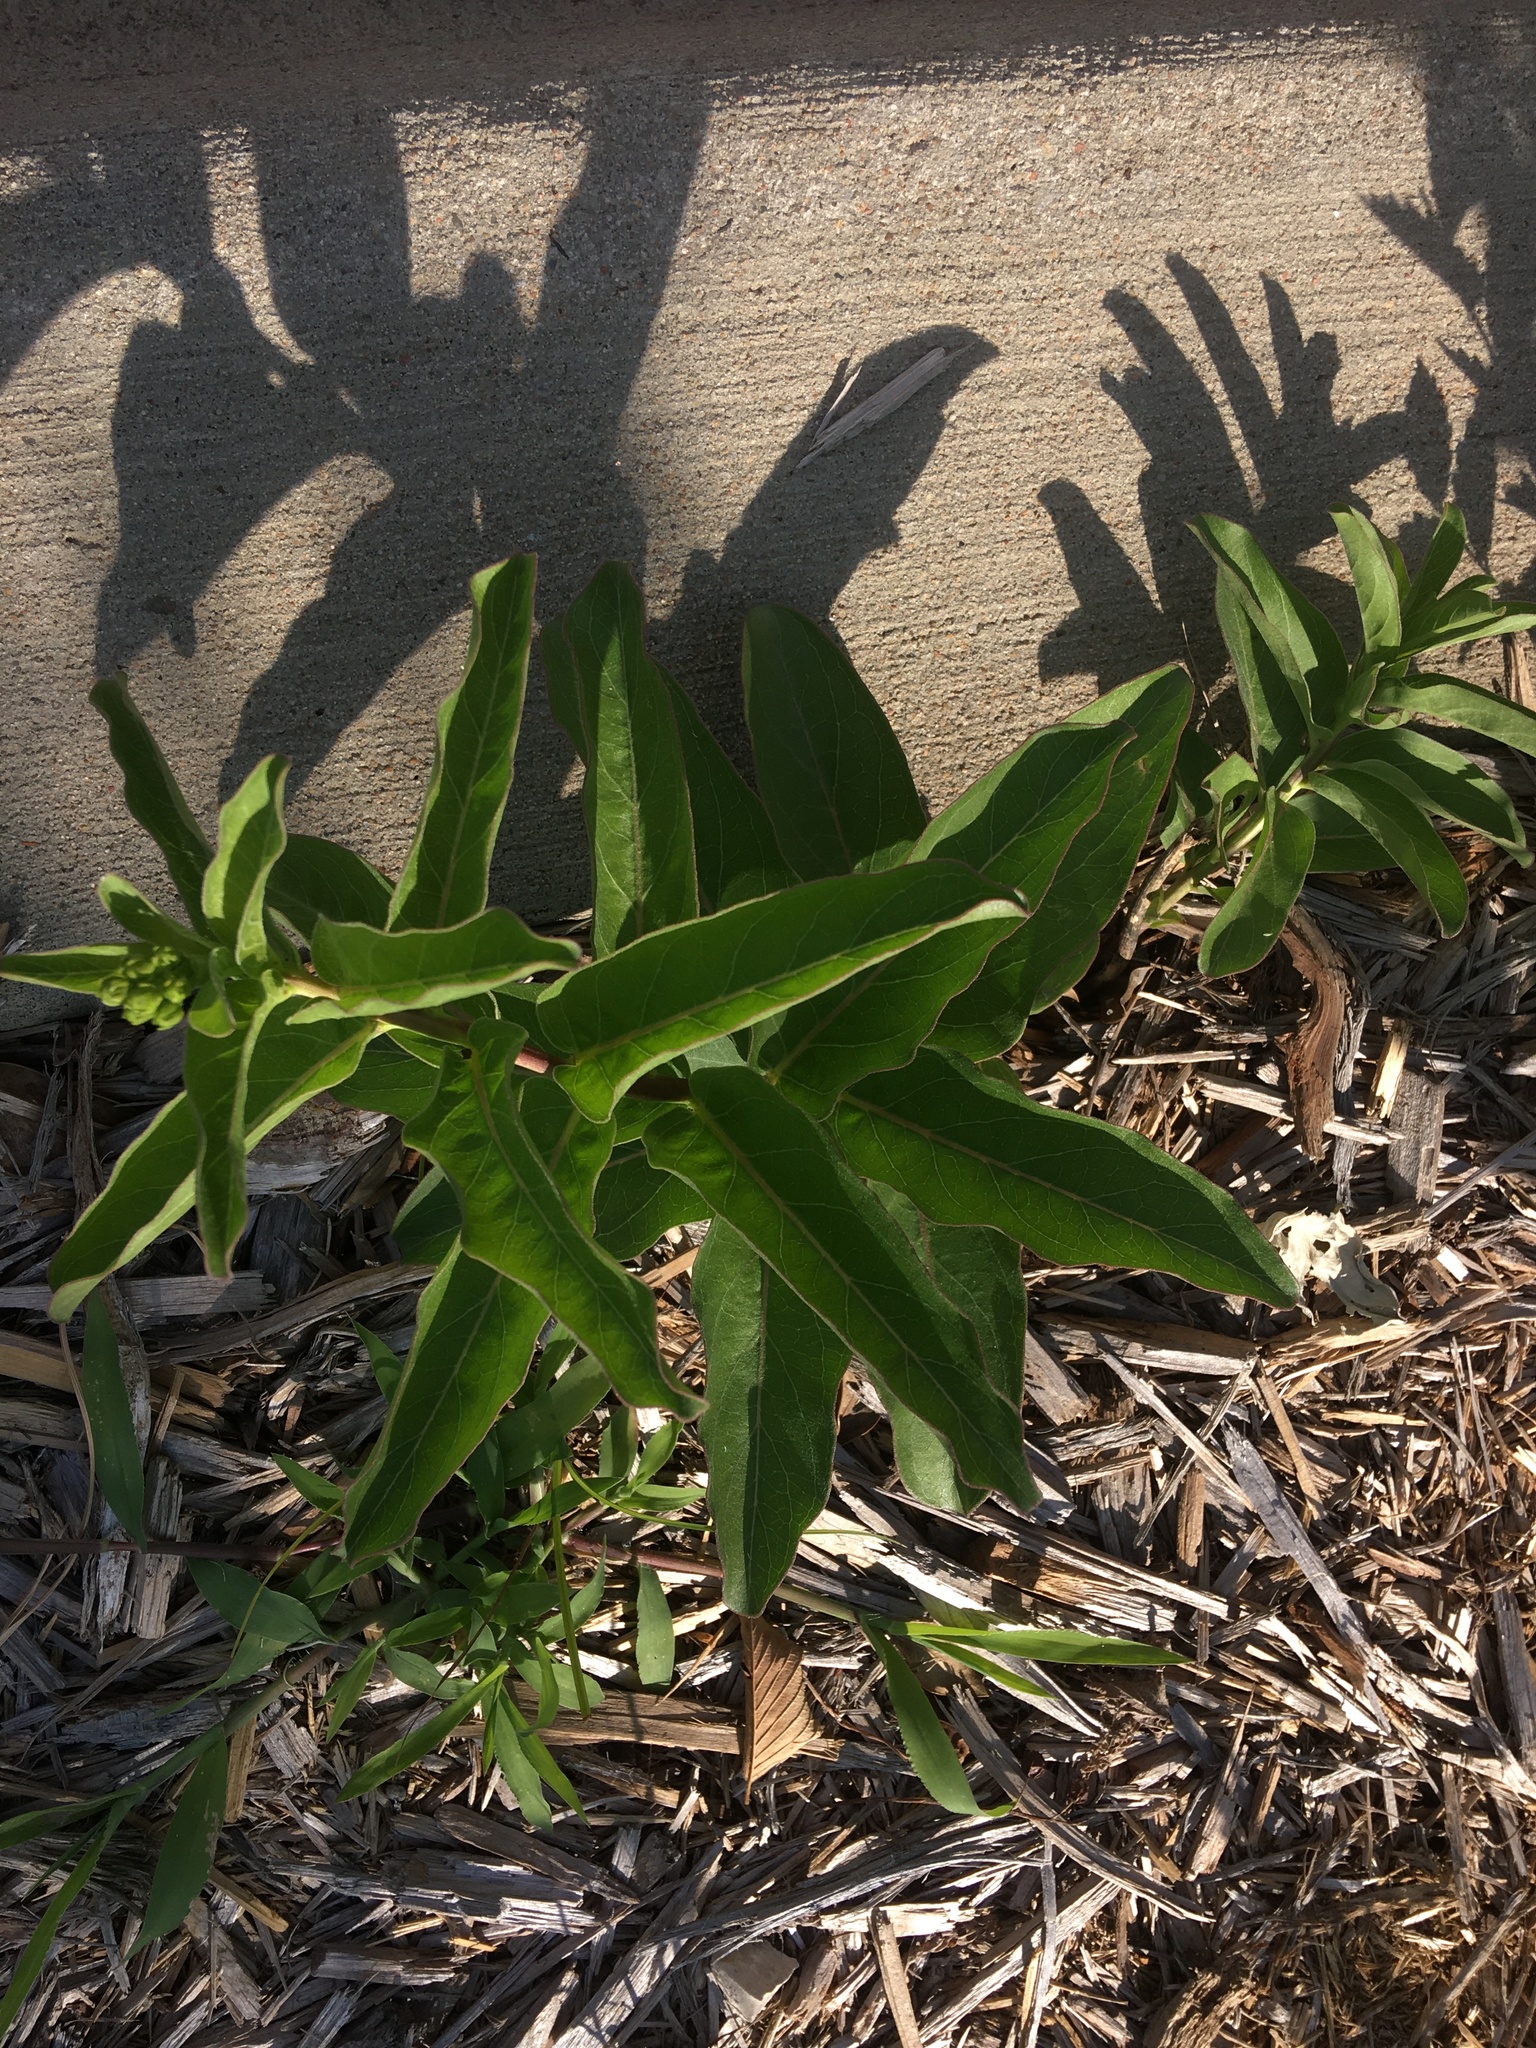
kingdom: Plantae
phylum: Tracheophyta
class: Magnoliopsida
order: Gentianales
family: Apocynaceae
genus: Asclepias
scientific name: Asclepias viridis
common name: Antelope-horns
